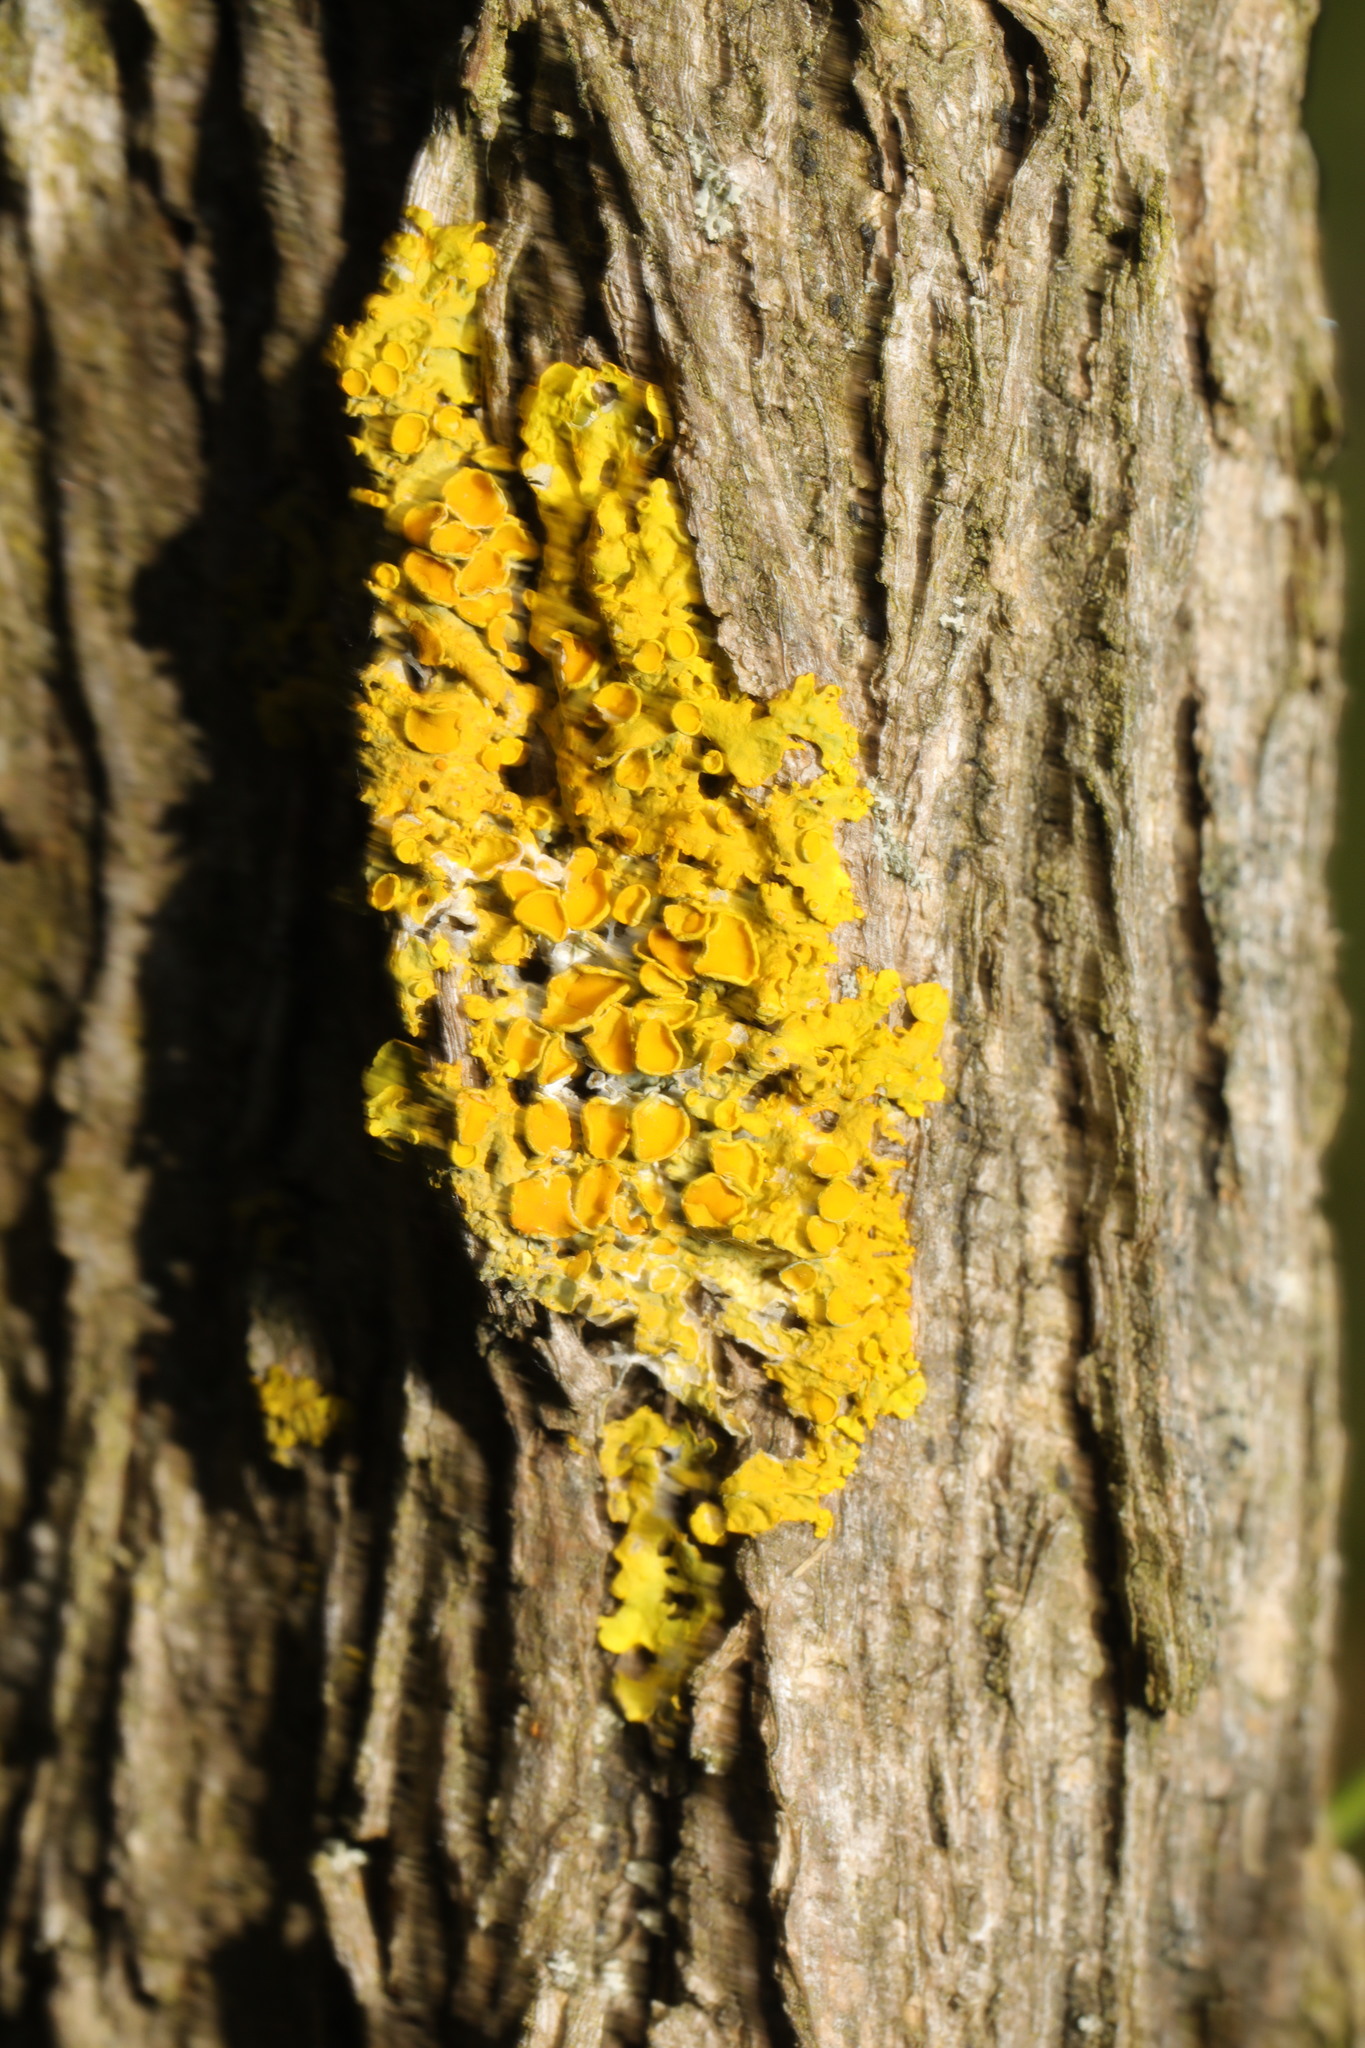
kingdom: Fungi
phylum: Ascomycota
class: Lecanoromycetes
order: Teloschistales
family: Teloschistaceae
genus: Xanthoria
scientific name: Xanthoria parietina
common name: Common orange lichen
